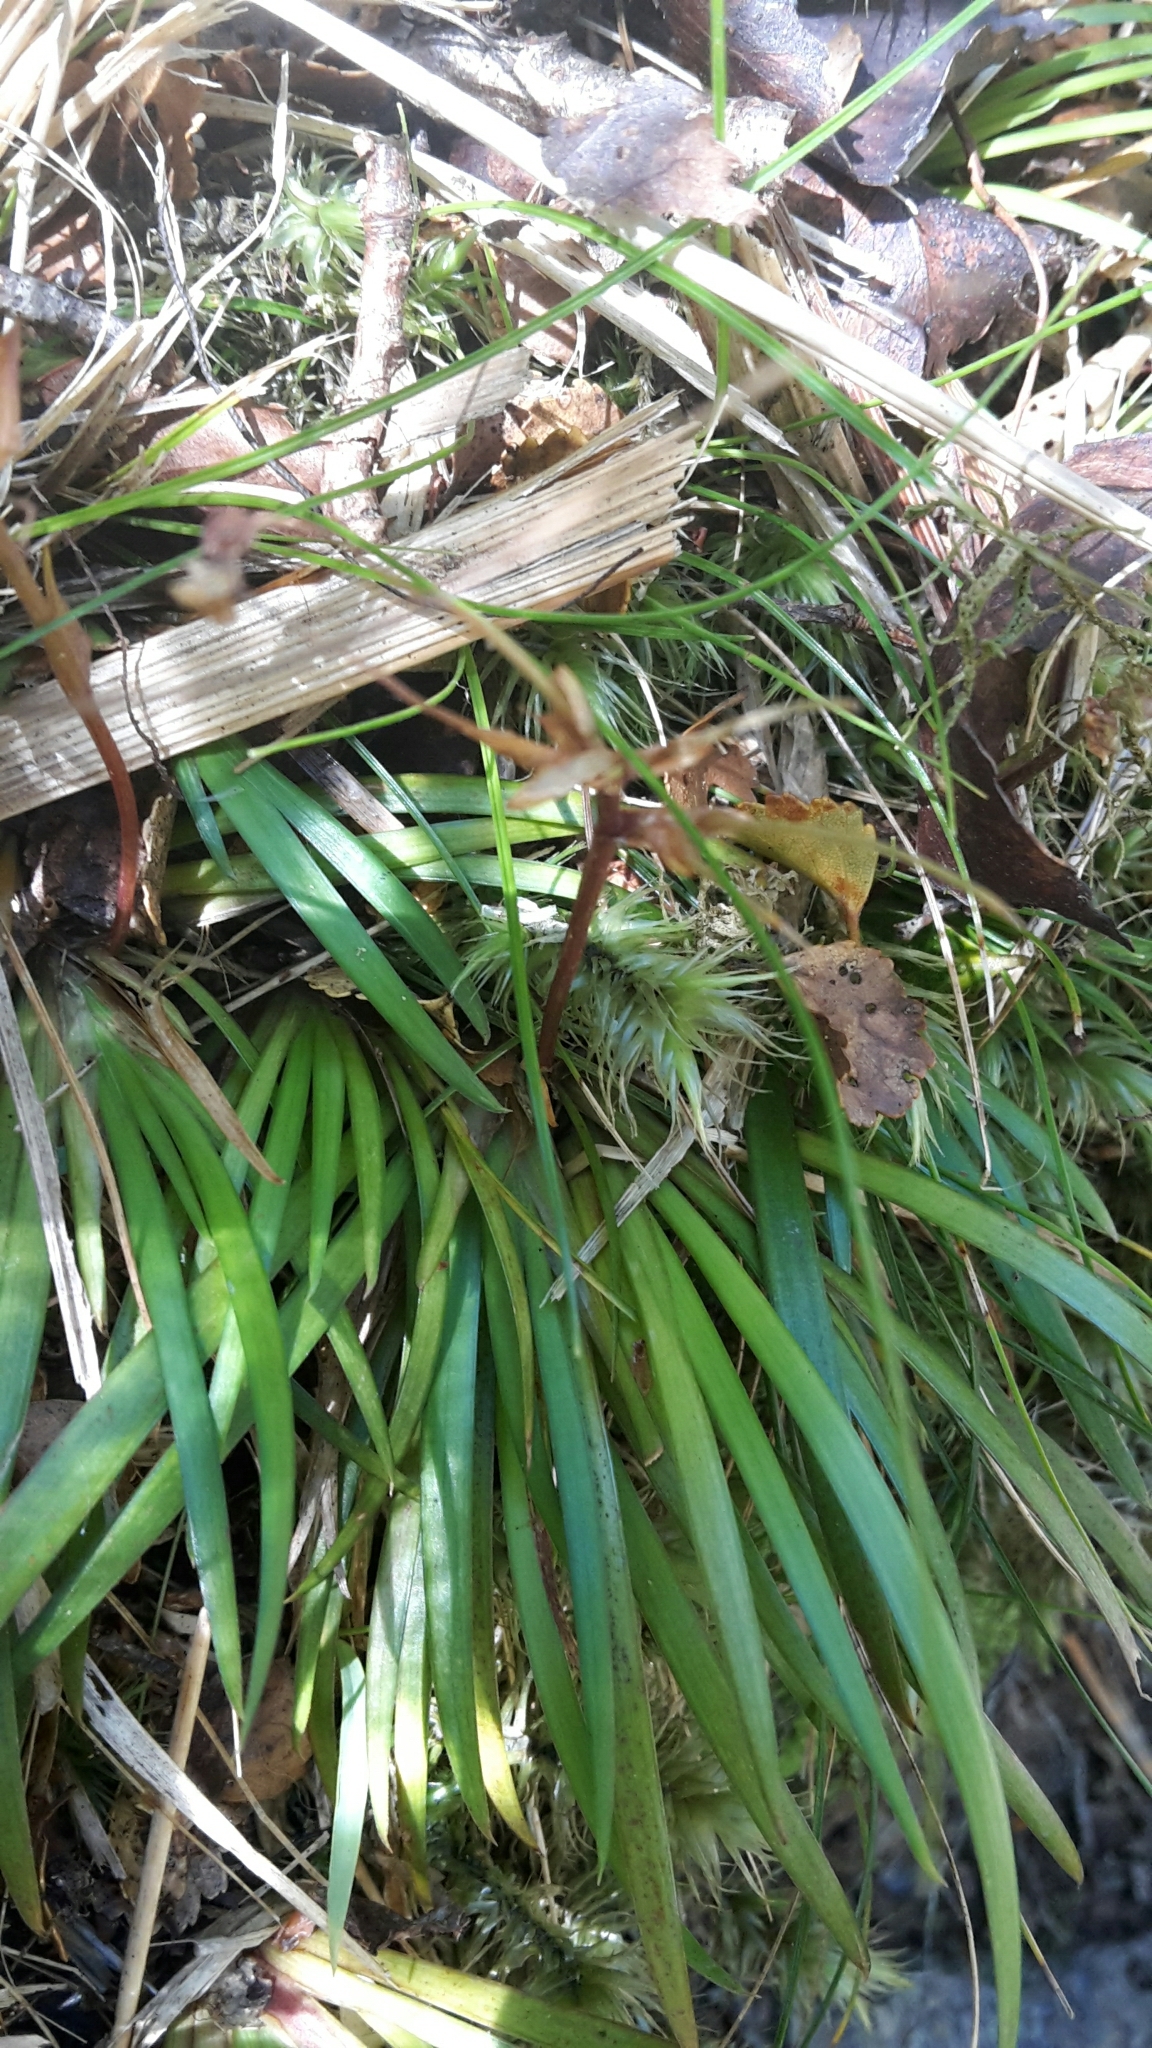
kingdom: Plantae
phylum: Tracheophyta
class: Liliopsida
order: Asparagales
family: Iridaceae
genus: Libertia
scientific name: Libertia micrantha
